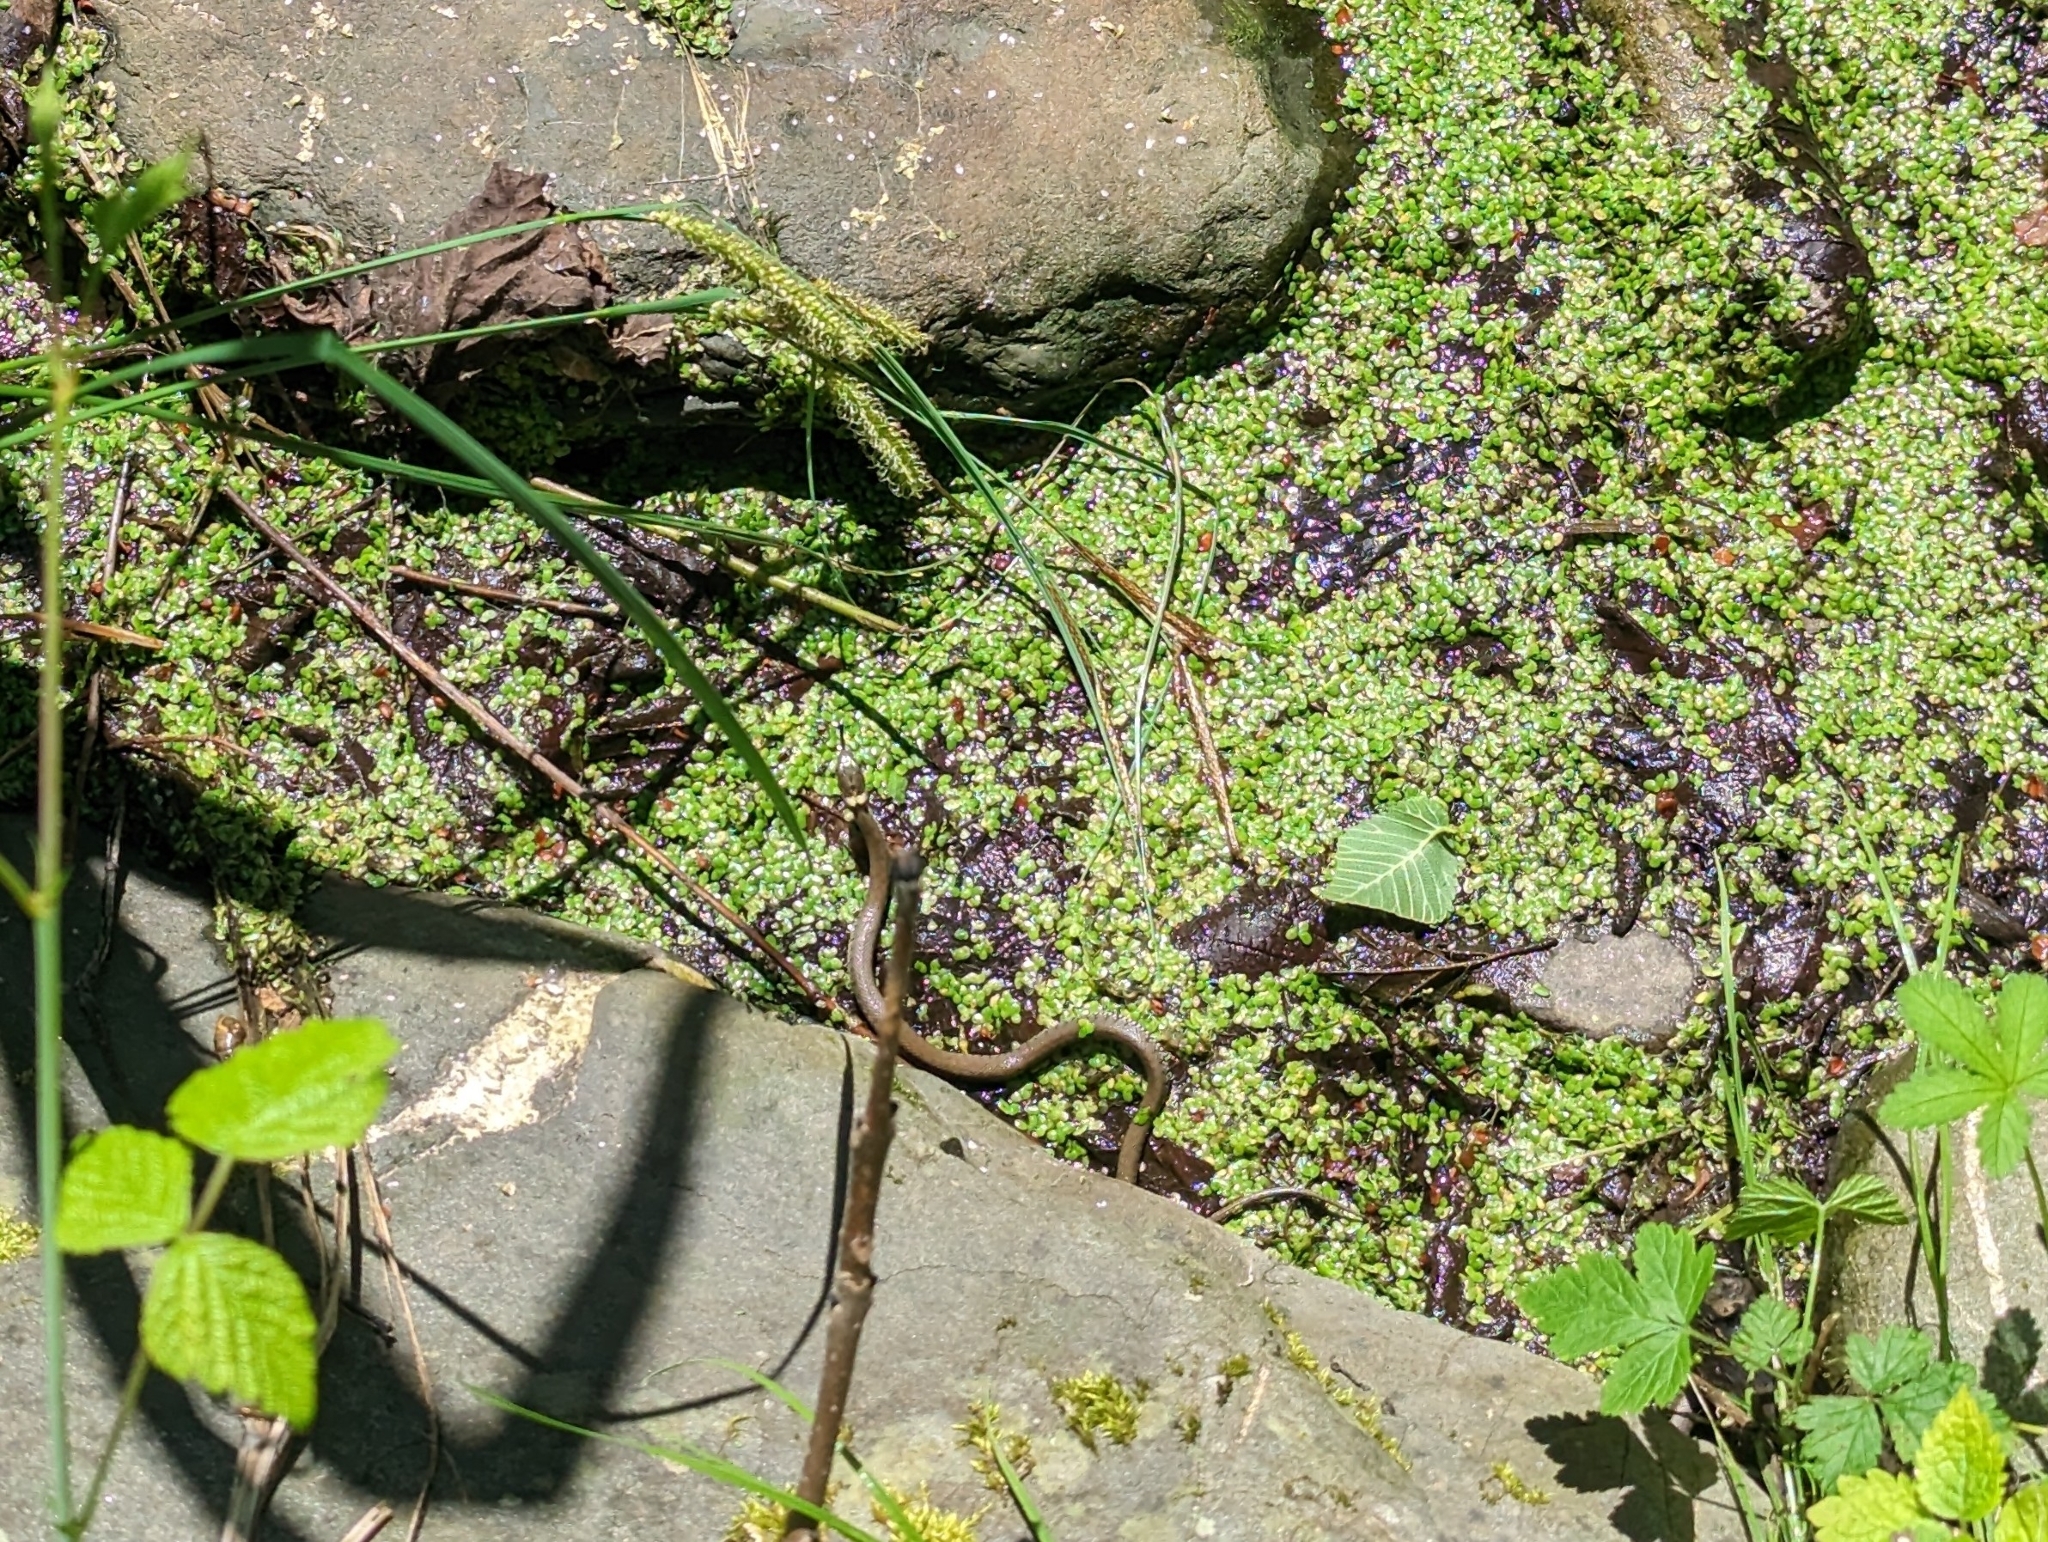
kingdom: Animalia
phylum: Chordata
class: Squamata
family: Colubridae
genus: Natrix
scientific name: Natrix helvetica
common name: Banded grass snake
